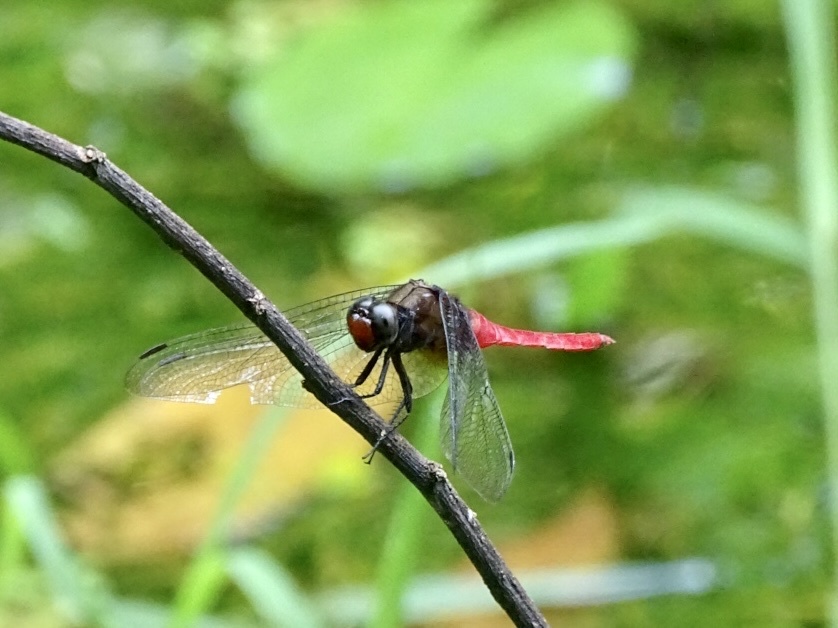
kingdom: Animalia
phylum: Arthropoda
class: Insecta
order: Odonata
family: Libellulidae
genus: Orthetrum
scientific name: Orthetrum chrysis
